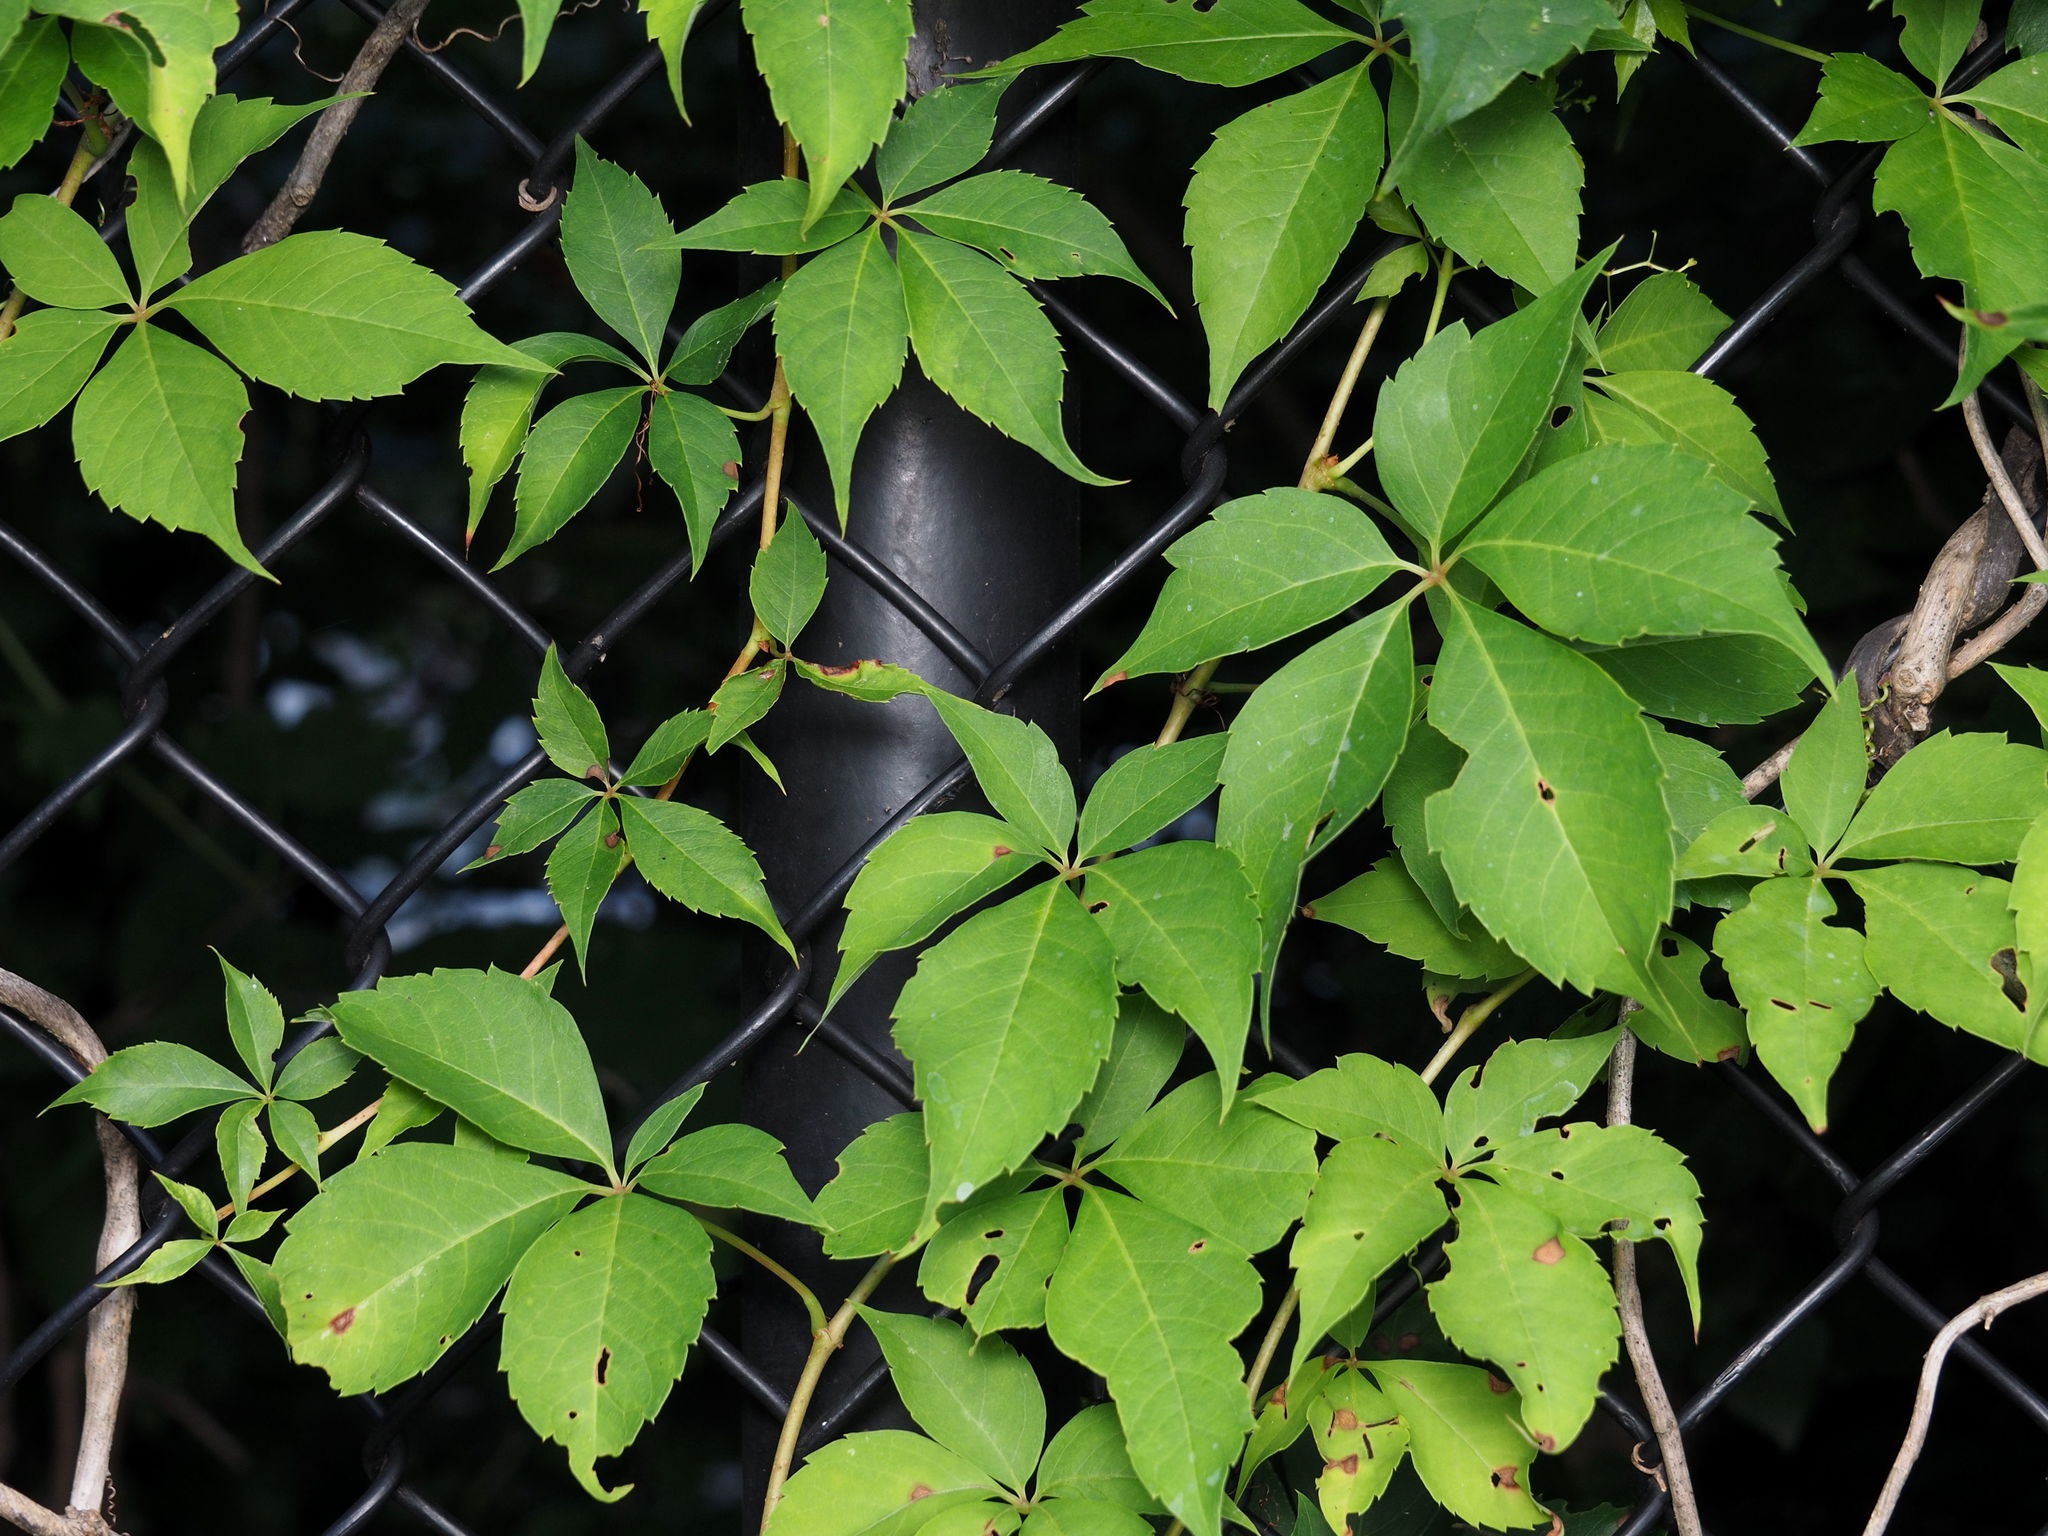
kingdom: Plantae
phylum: Tracheophyta
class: Magnoliopsida
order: Vitales
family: Vitaceae
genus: Parthenocissus
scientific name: Parthenocissus quinquefolia
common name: Virginia-creeper
